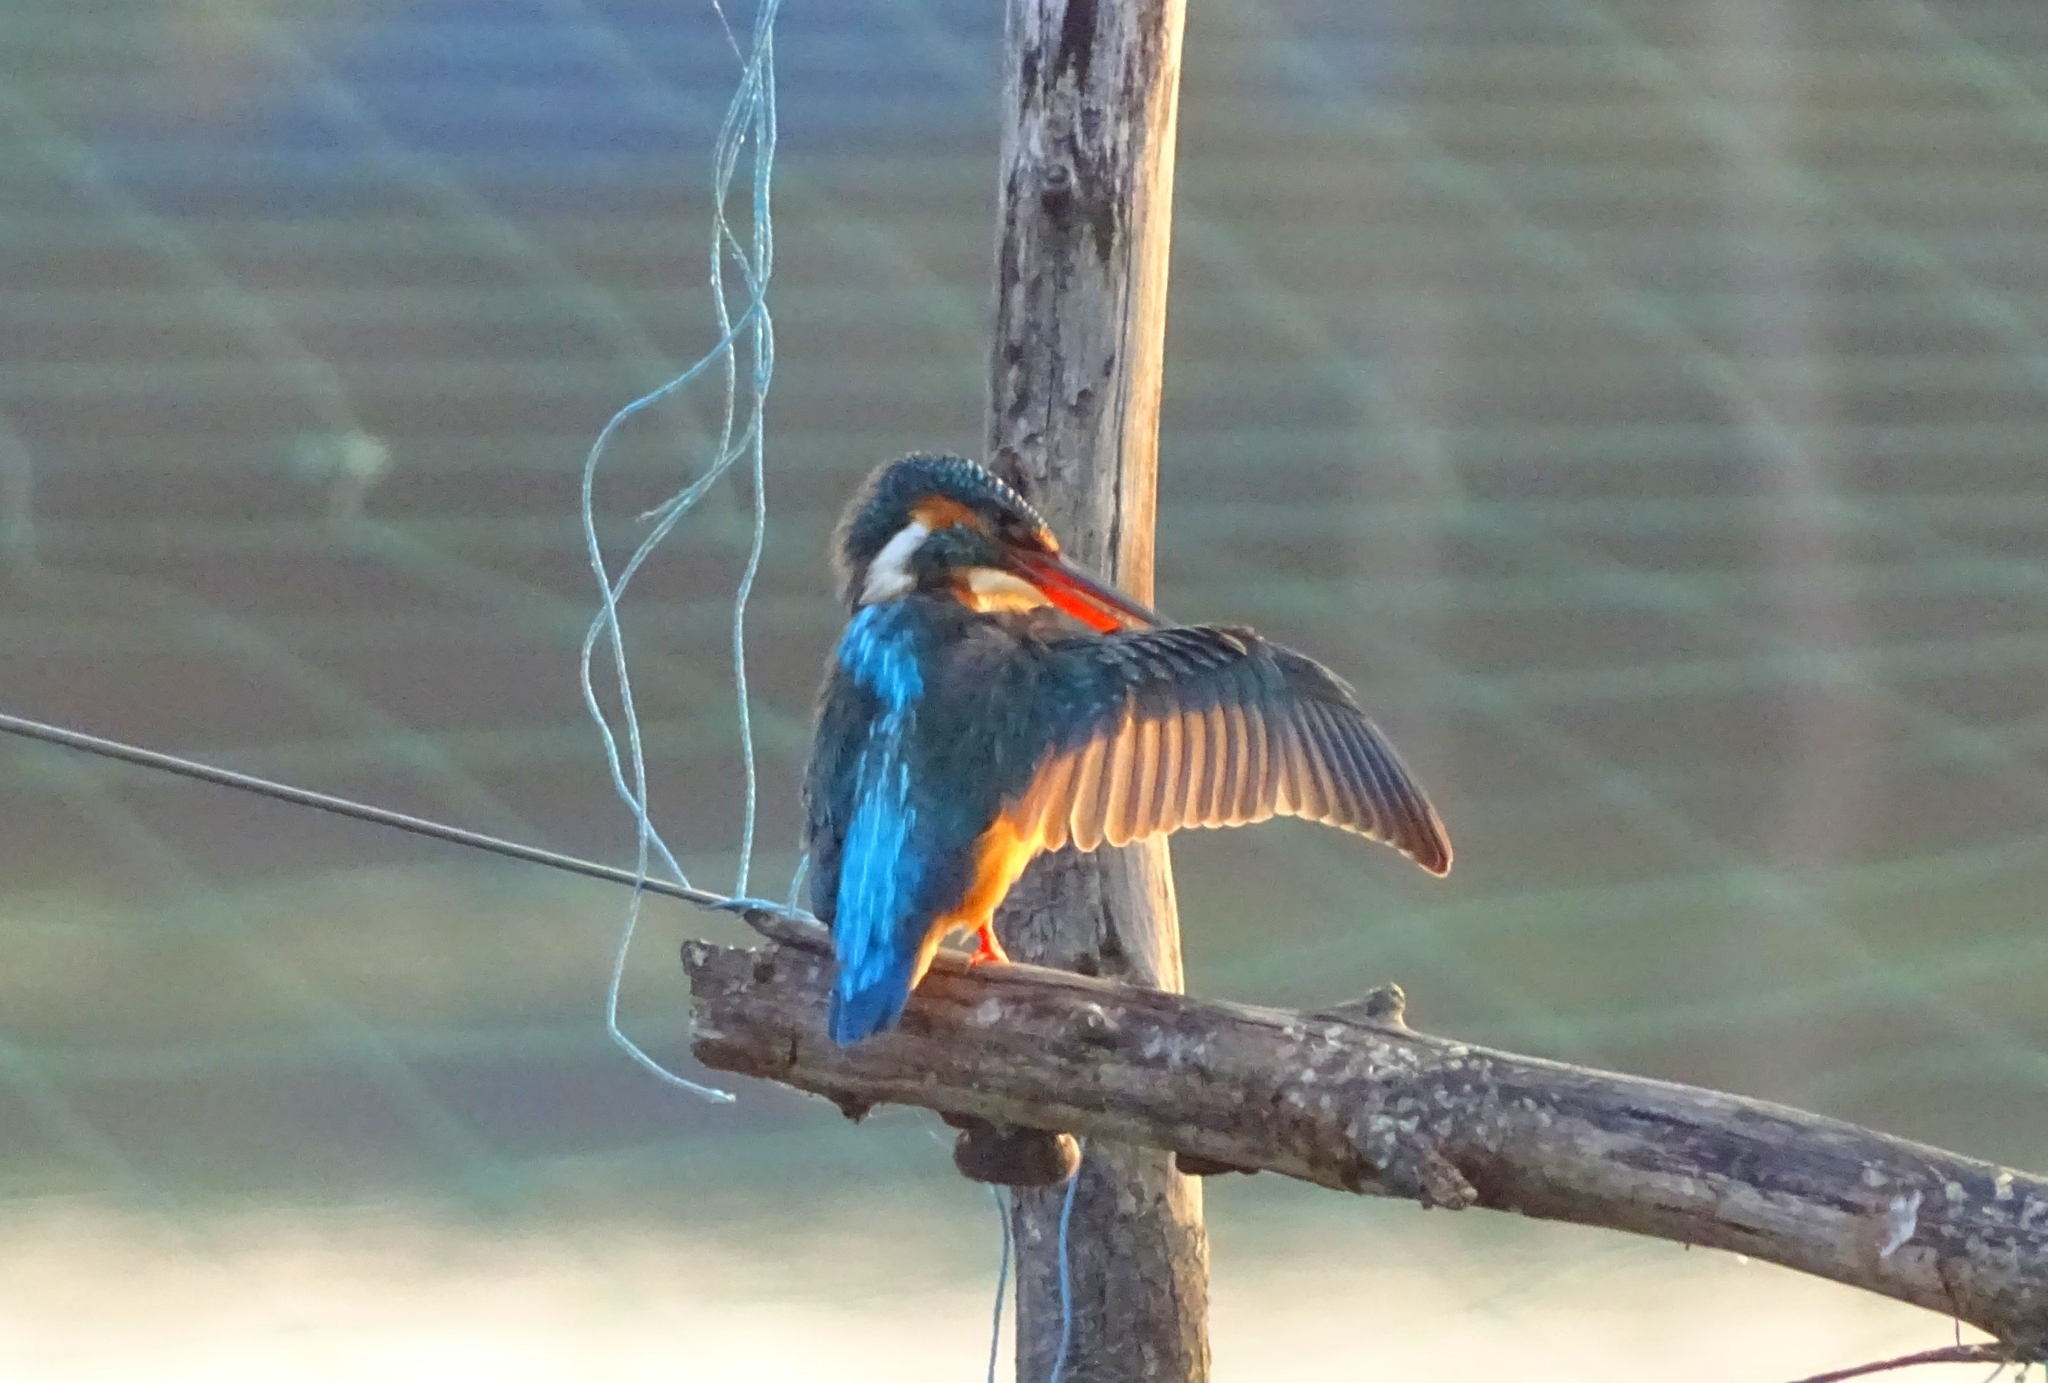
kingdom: Animalia
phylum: Chordata
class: Aves
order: Coraciiformes
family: Alcedinidae
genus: Alcedo
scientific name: Alcedo atthis
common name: Common kingfisher
